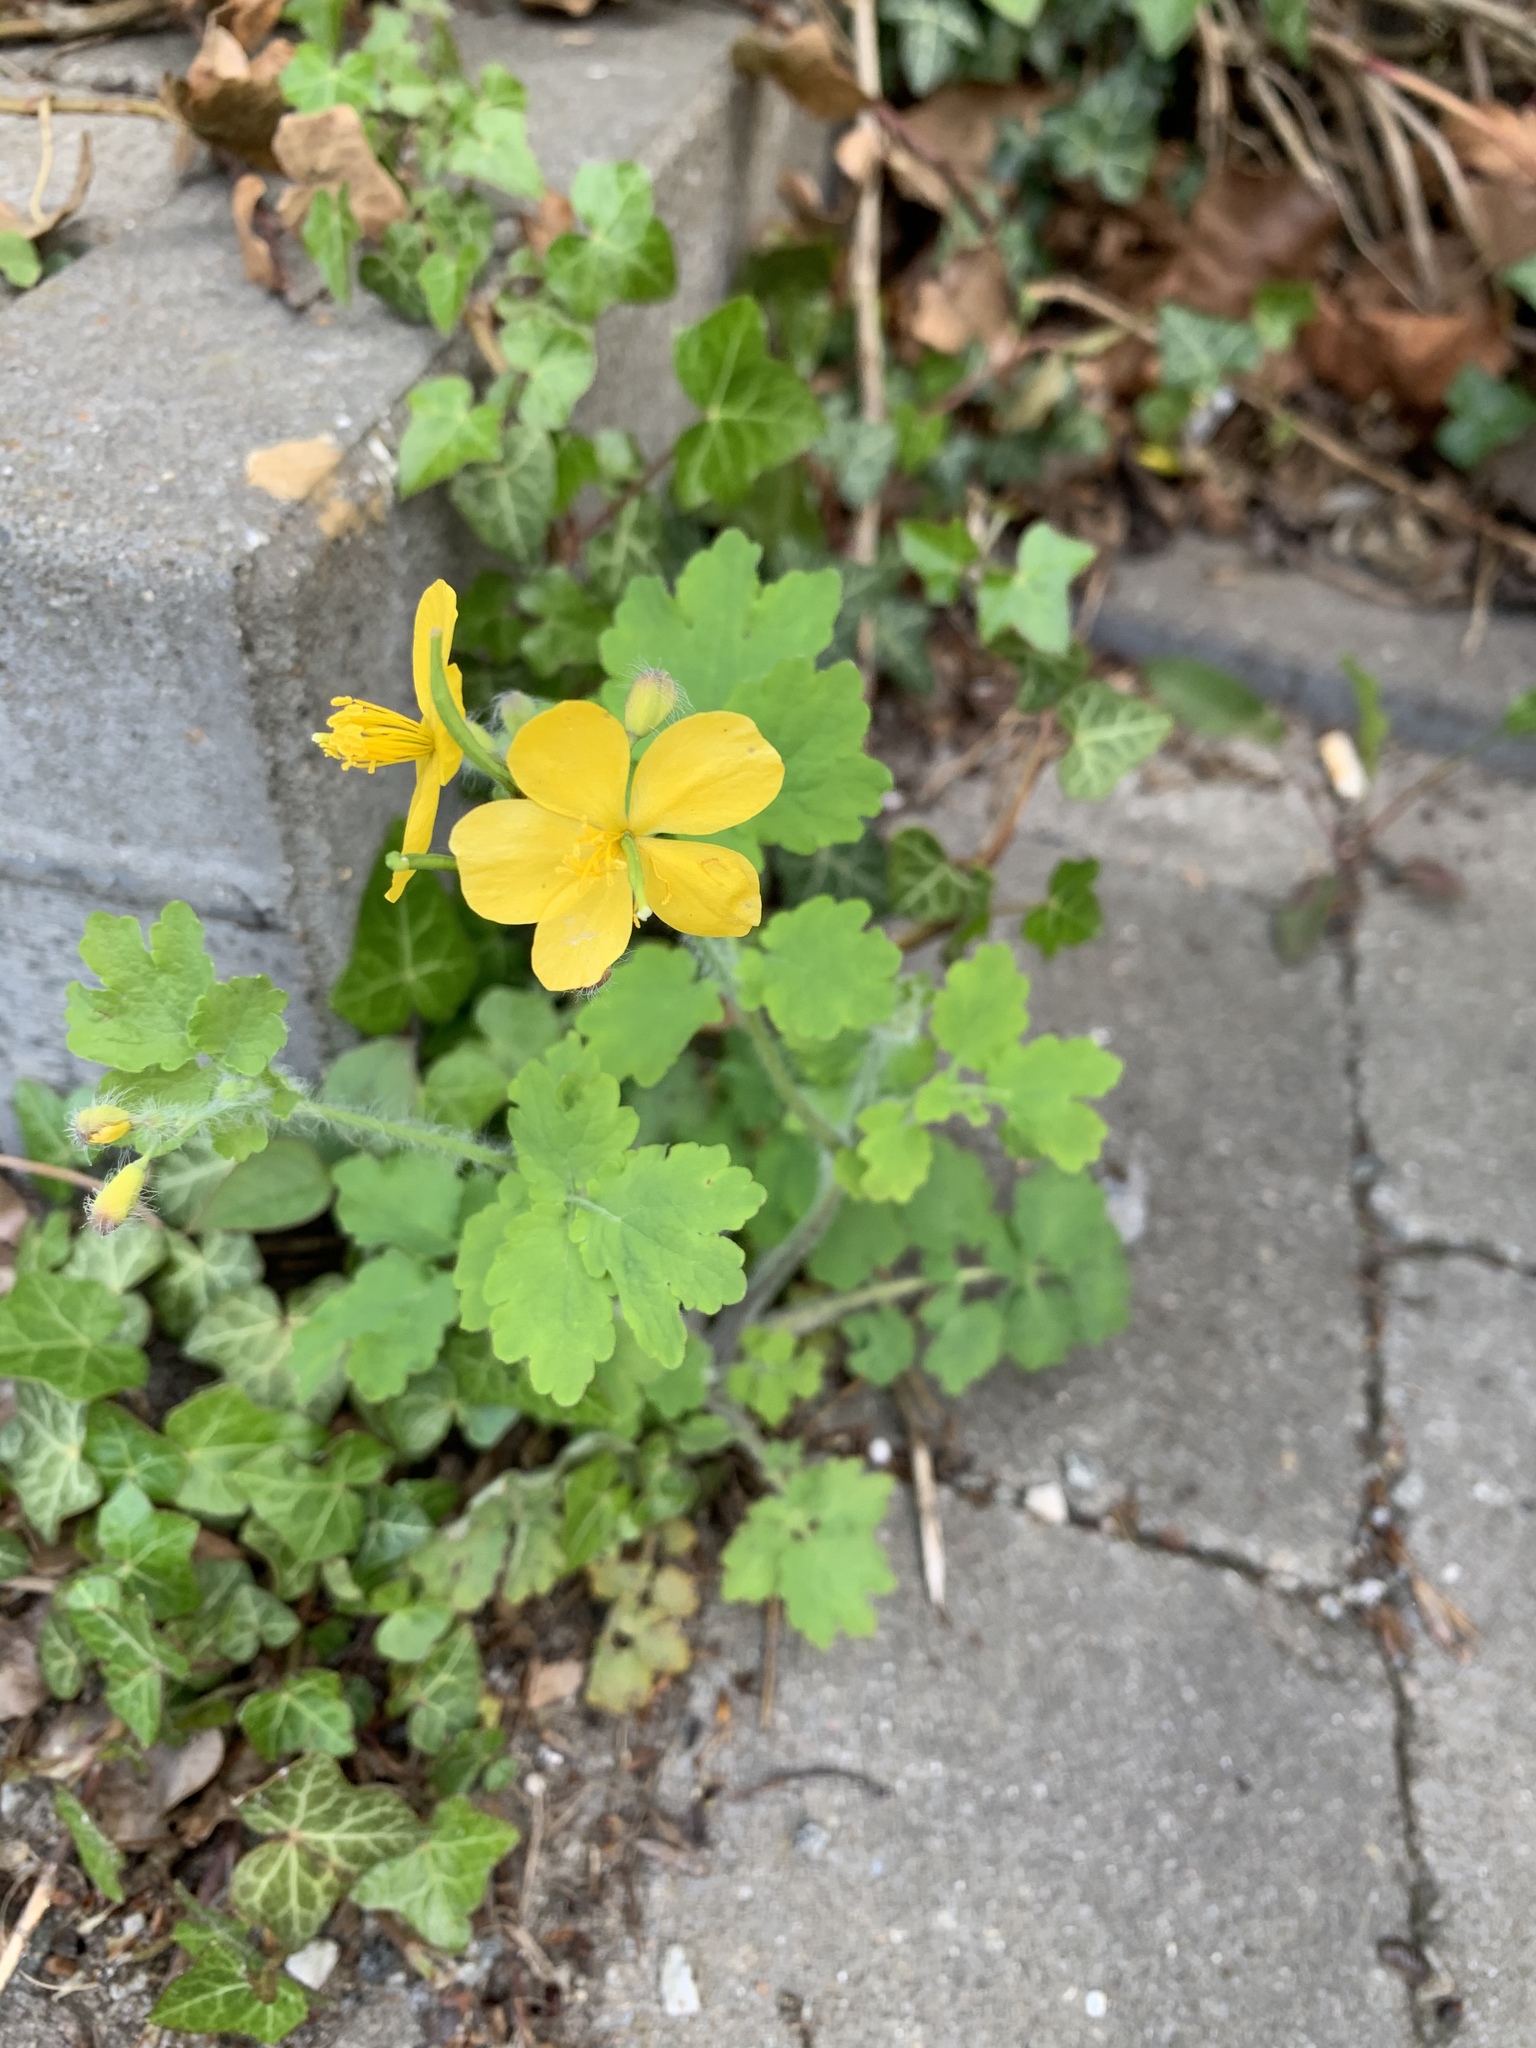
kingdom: Plantae
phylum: Tracheophyta
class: Magnoliopsida
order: Ranunculales
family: Papaveraceae
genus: Chelidonium
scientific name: Chelidonium majus
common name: Greater celandine
